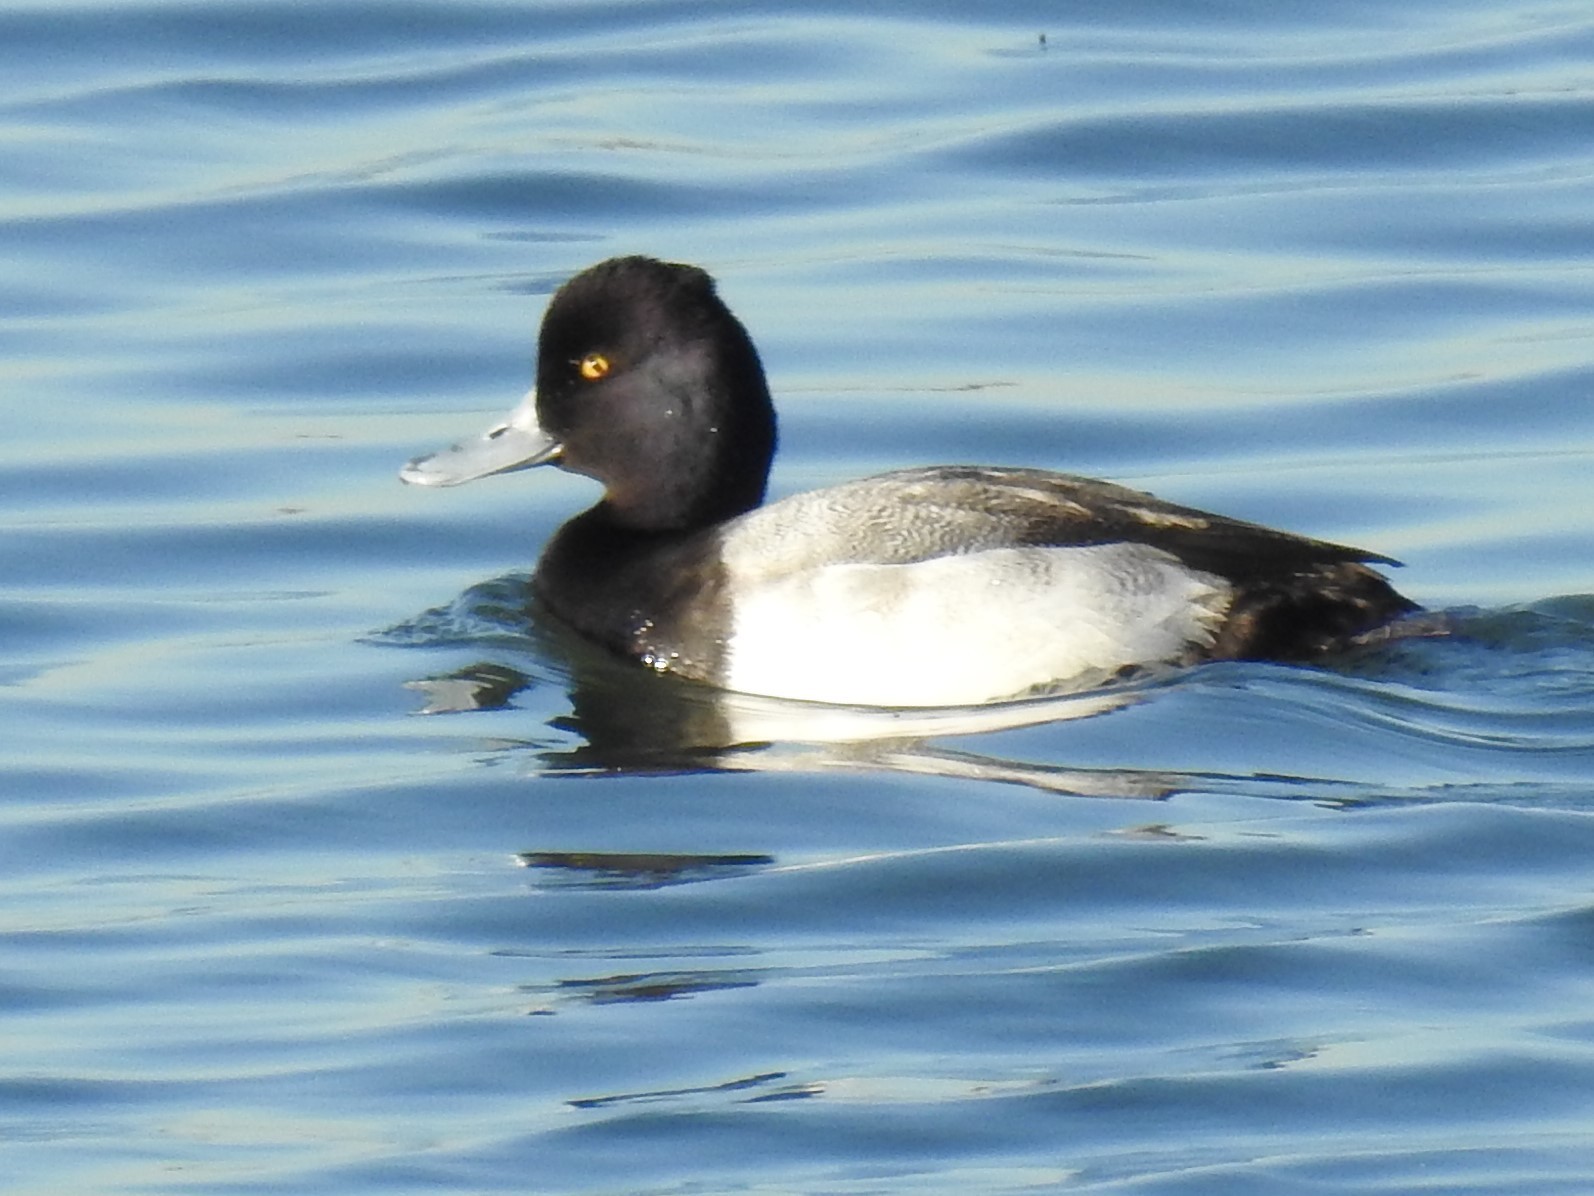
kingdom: Animalia
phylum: Chordata
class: Aves
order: Anseriformes
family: Anatidae
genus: Aythya
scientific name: Aythya affinis
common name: Lesser scaup
